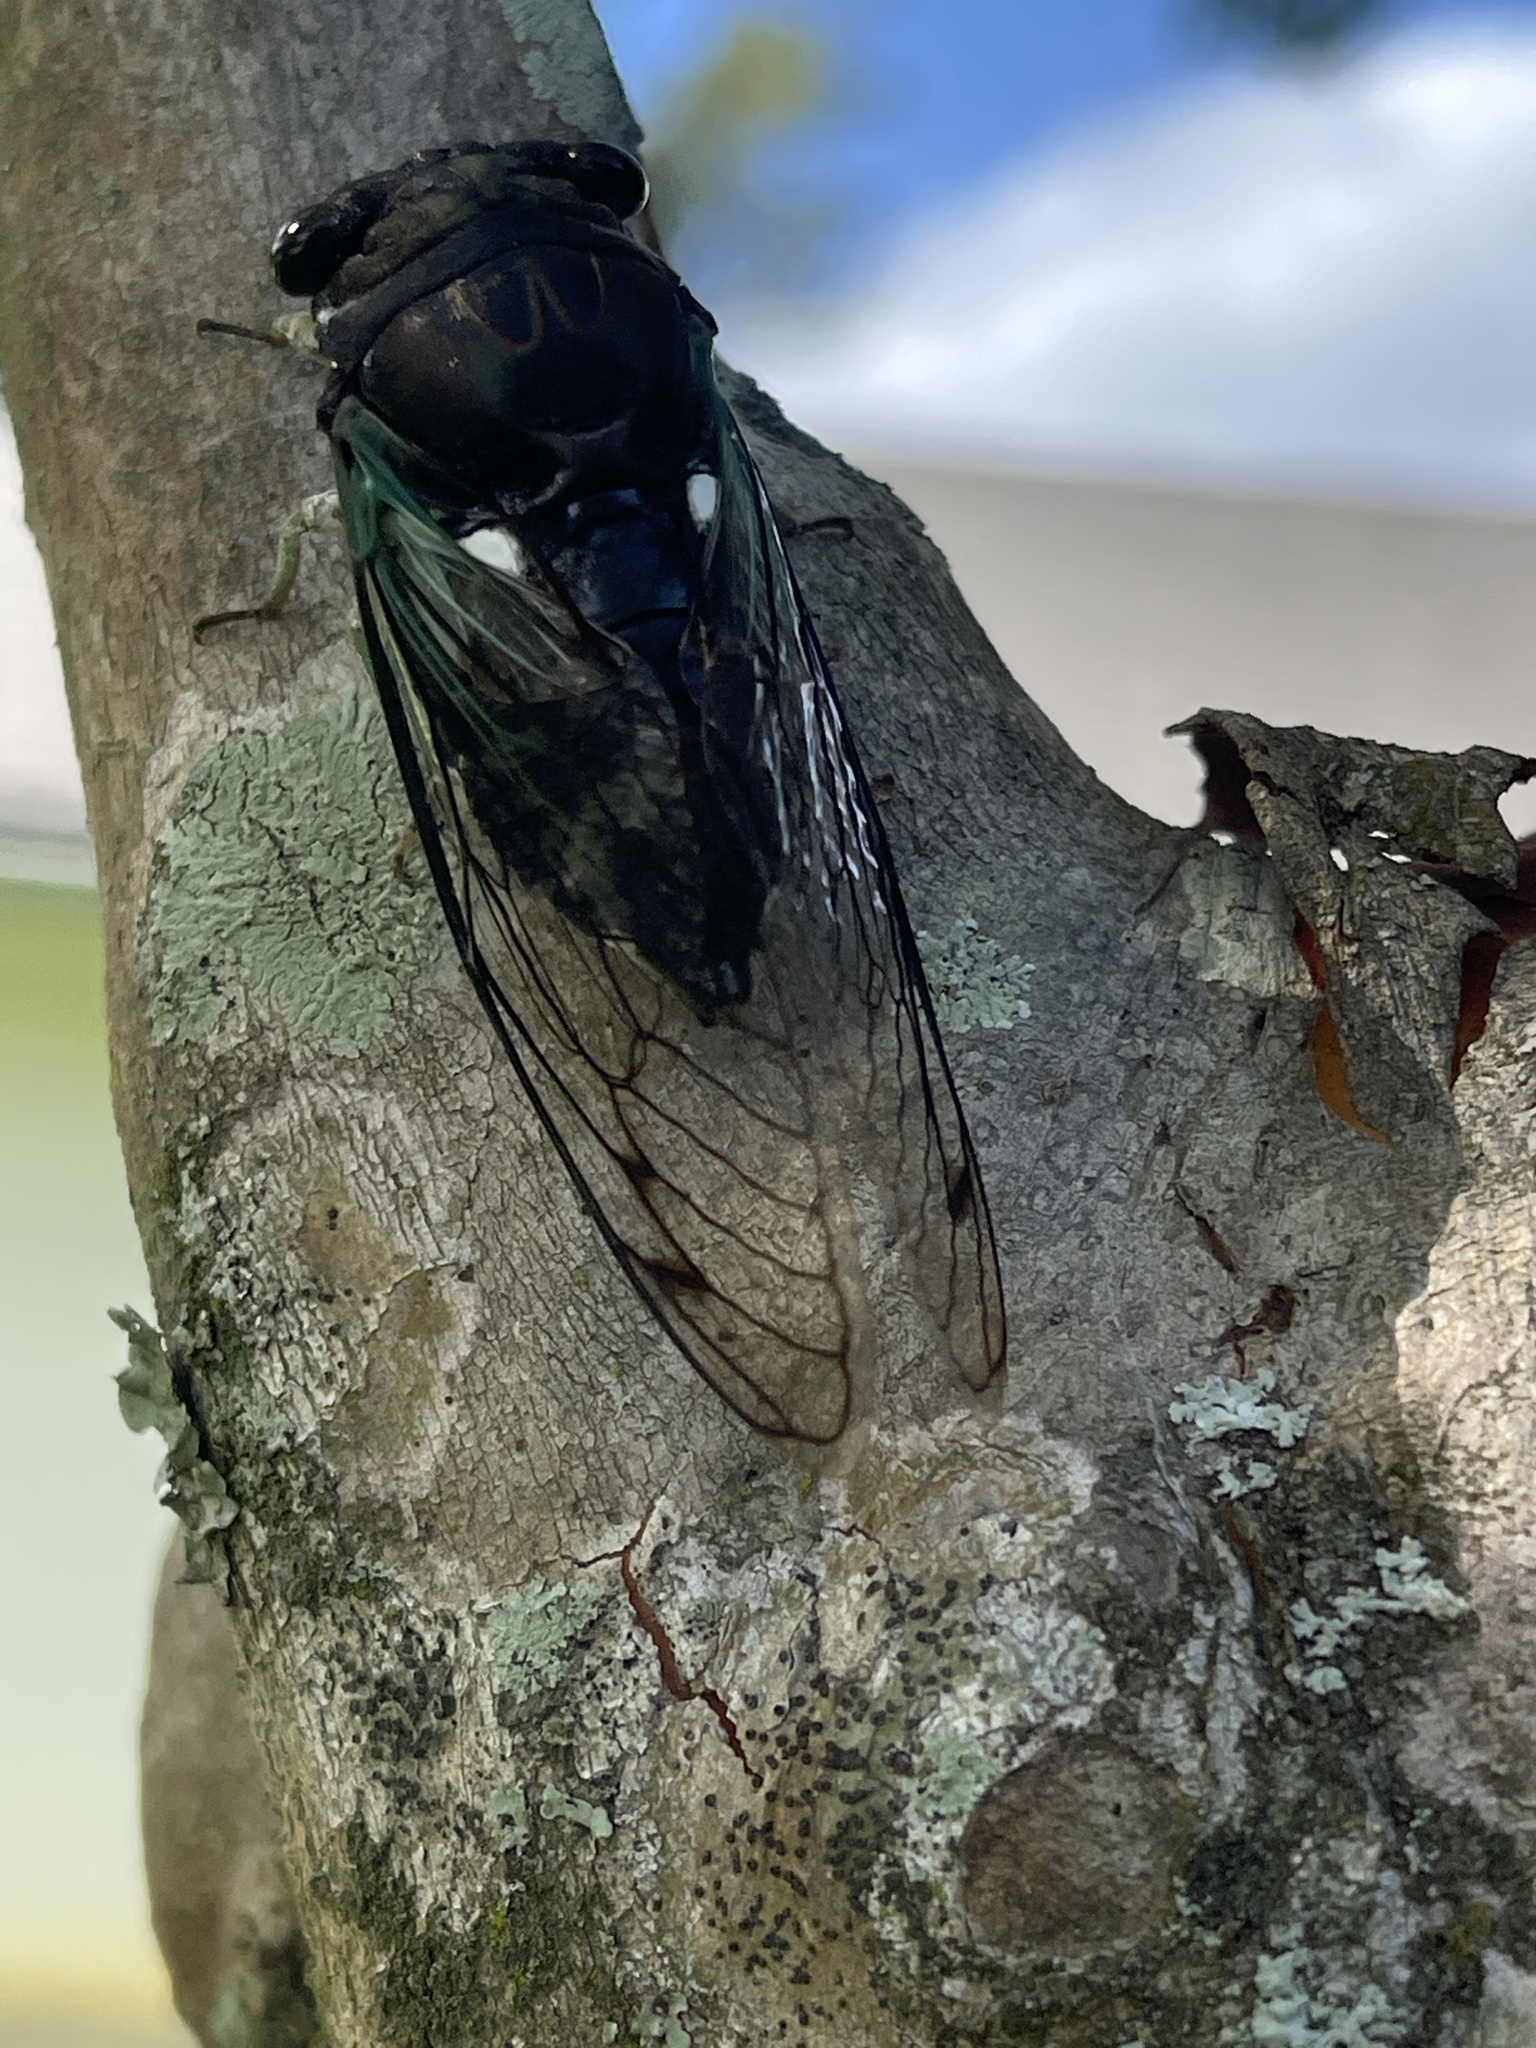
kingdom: Animalia
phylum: Arthropoda
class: Insecta
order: Hemiptera
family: Cicadidae
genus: Neotibicen
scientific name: Neotibicen tibicen
